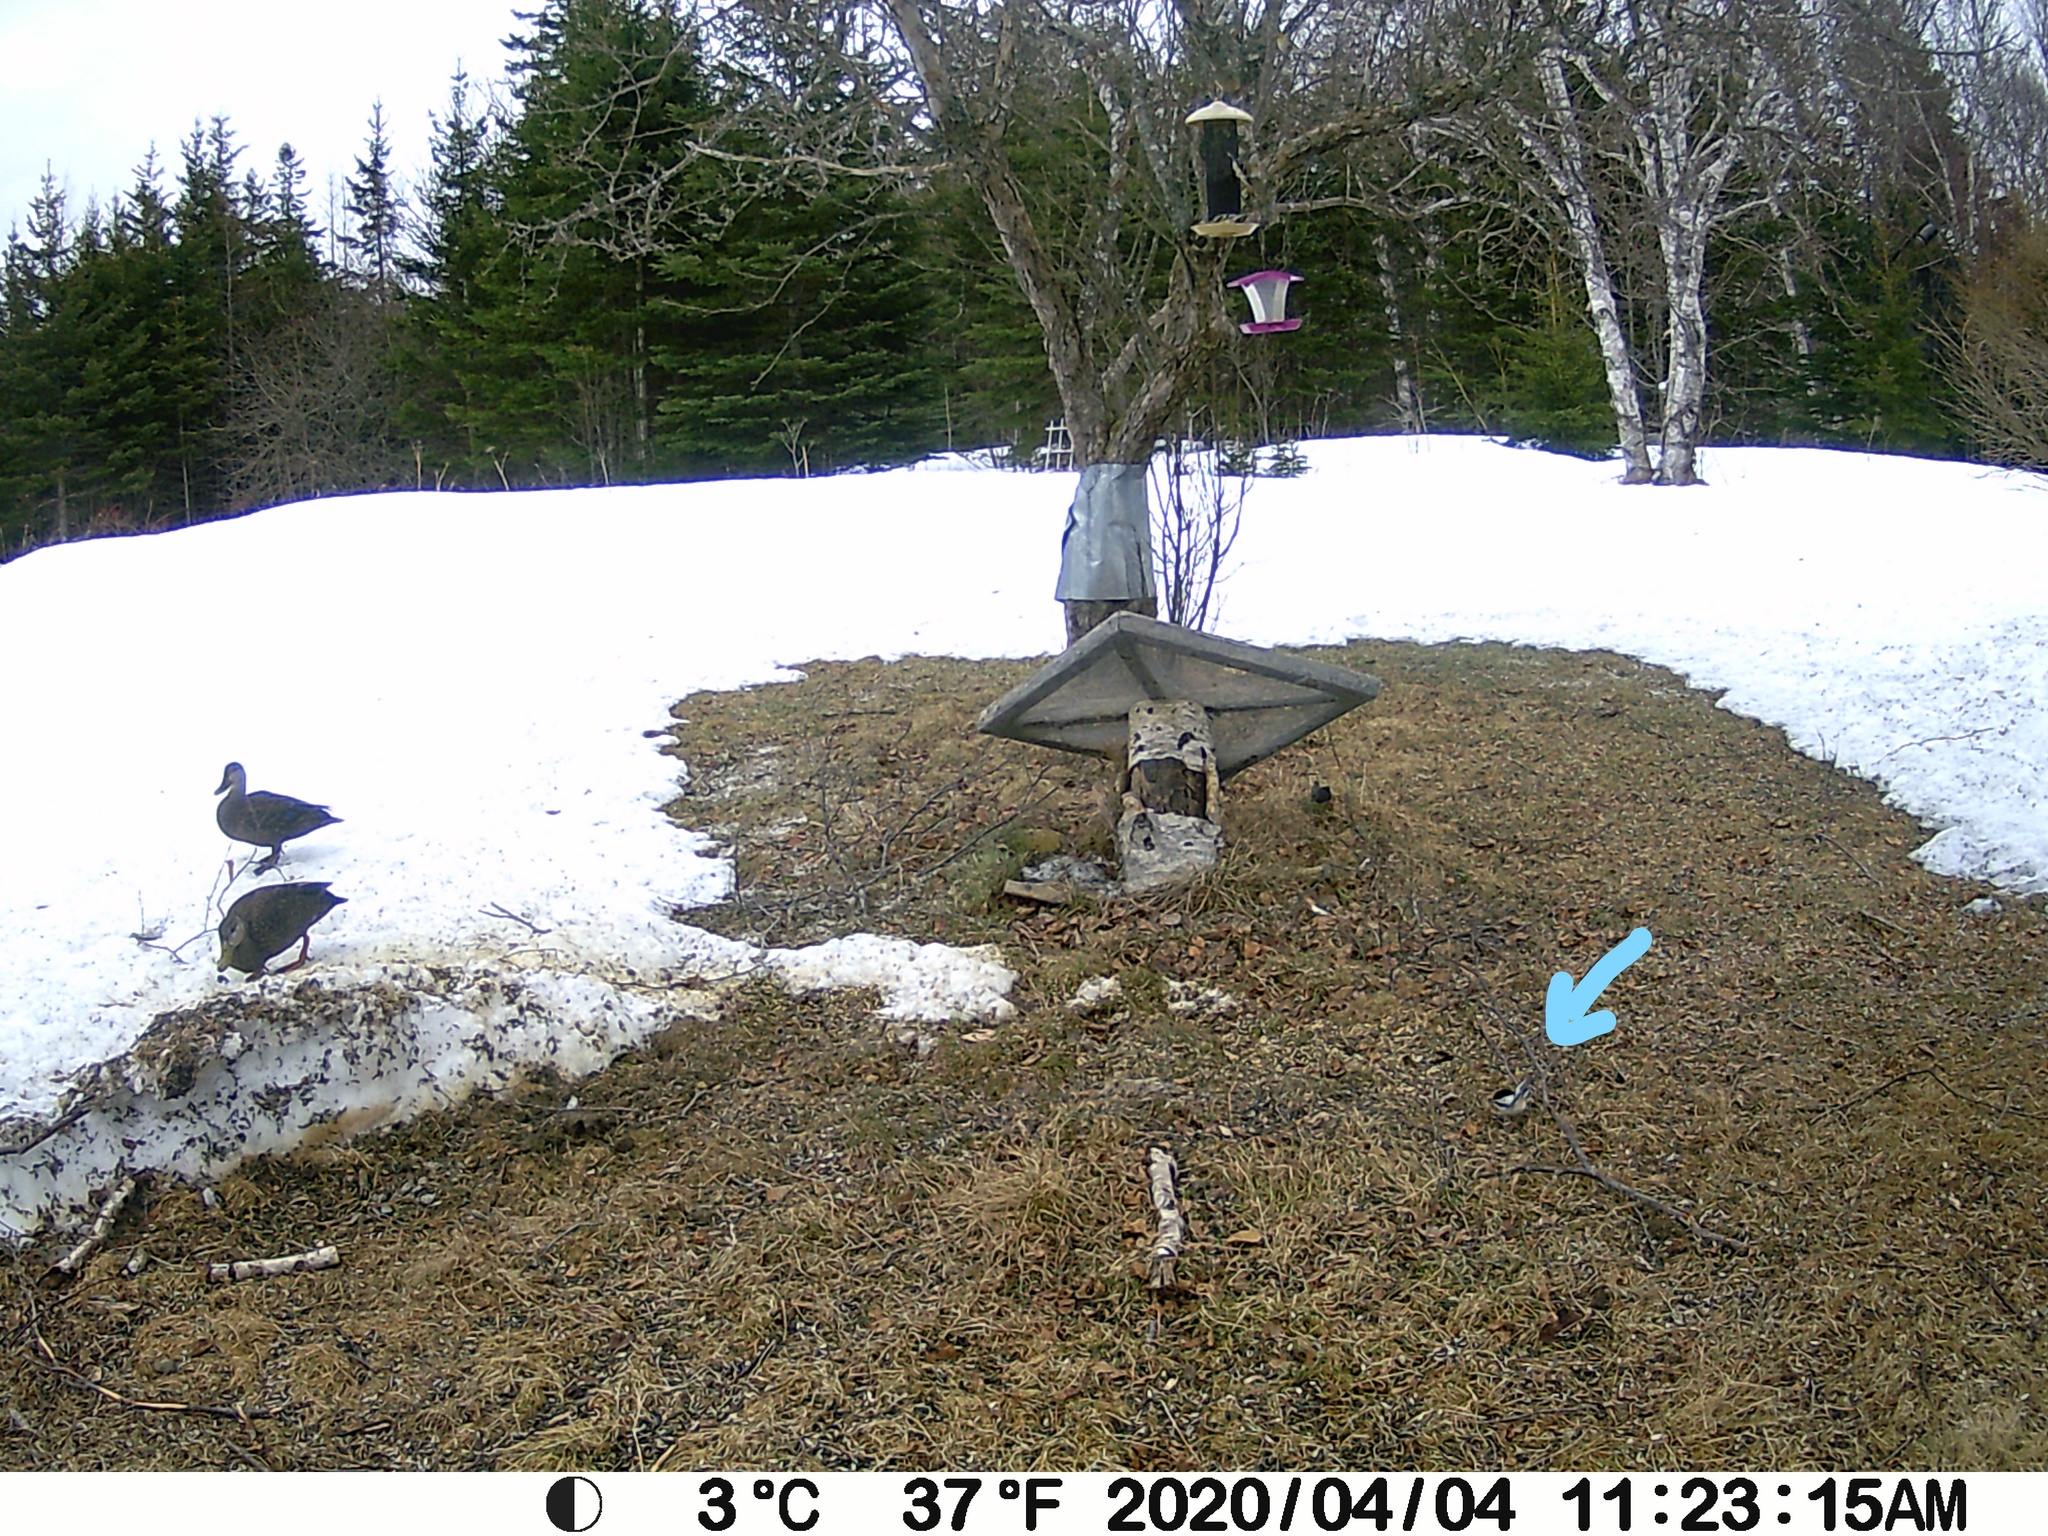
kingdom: Animalia
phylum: Chordata
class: Aves
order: Passeriformes
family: Paridae
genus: Poecile
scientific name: Poecile atricapillus
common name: Black-capped chickadee
